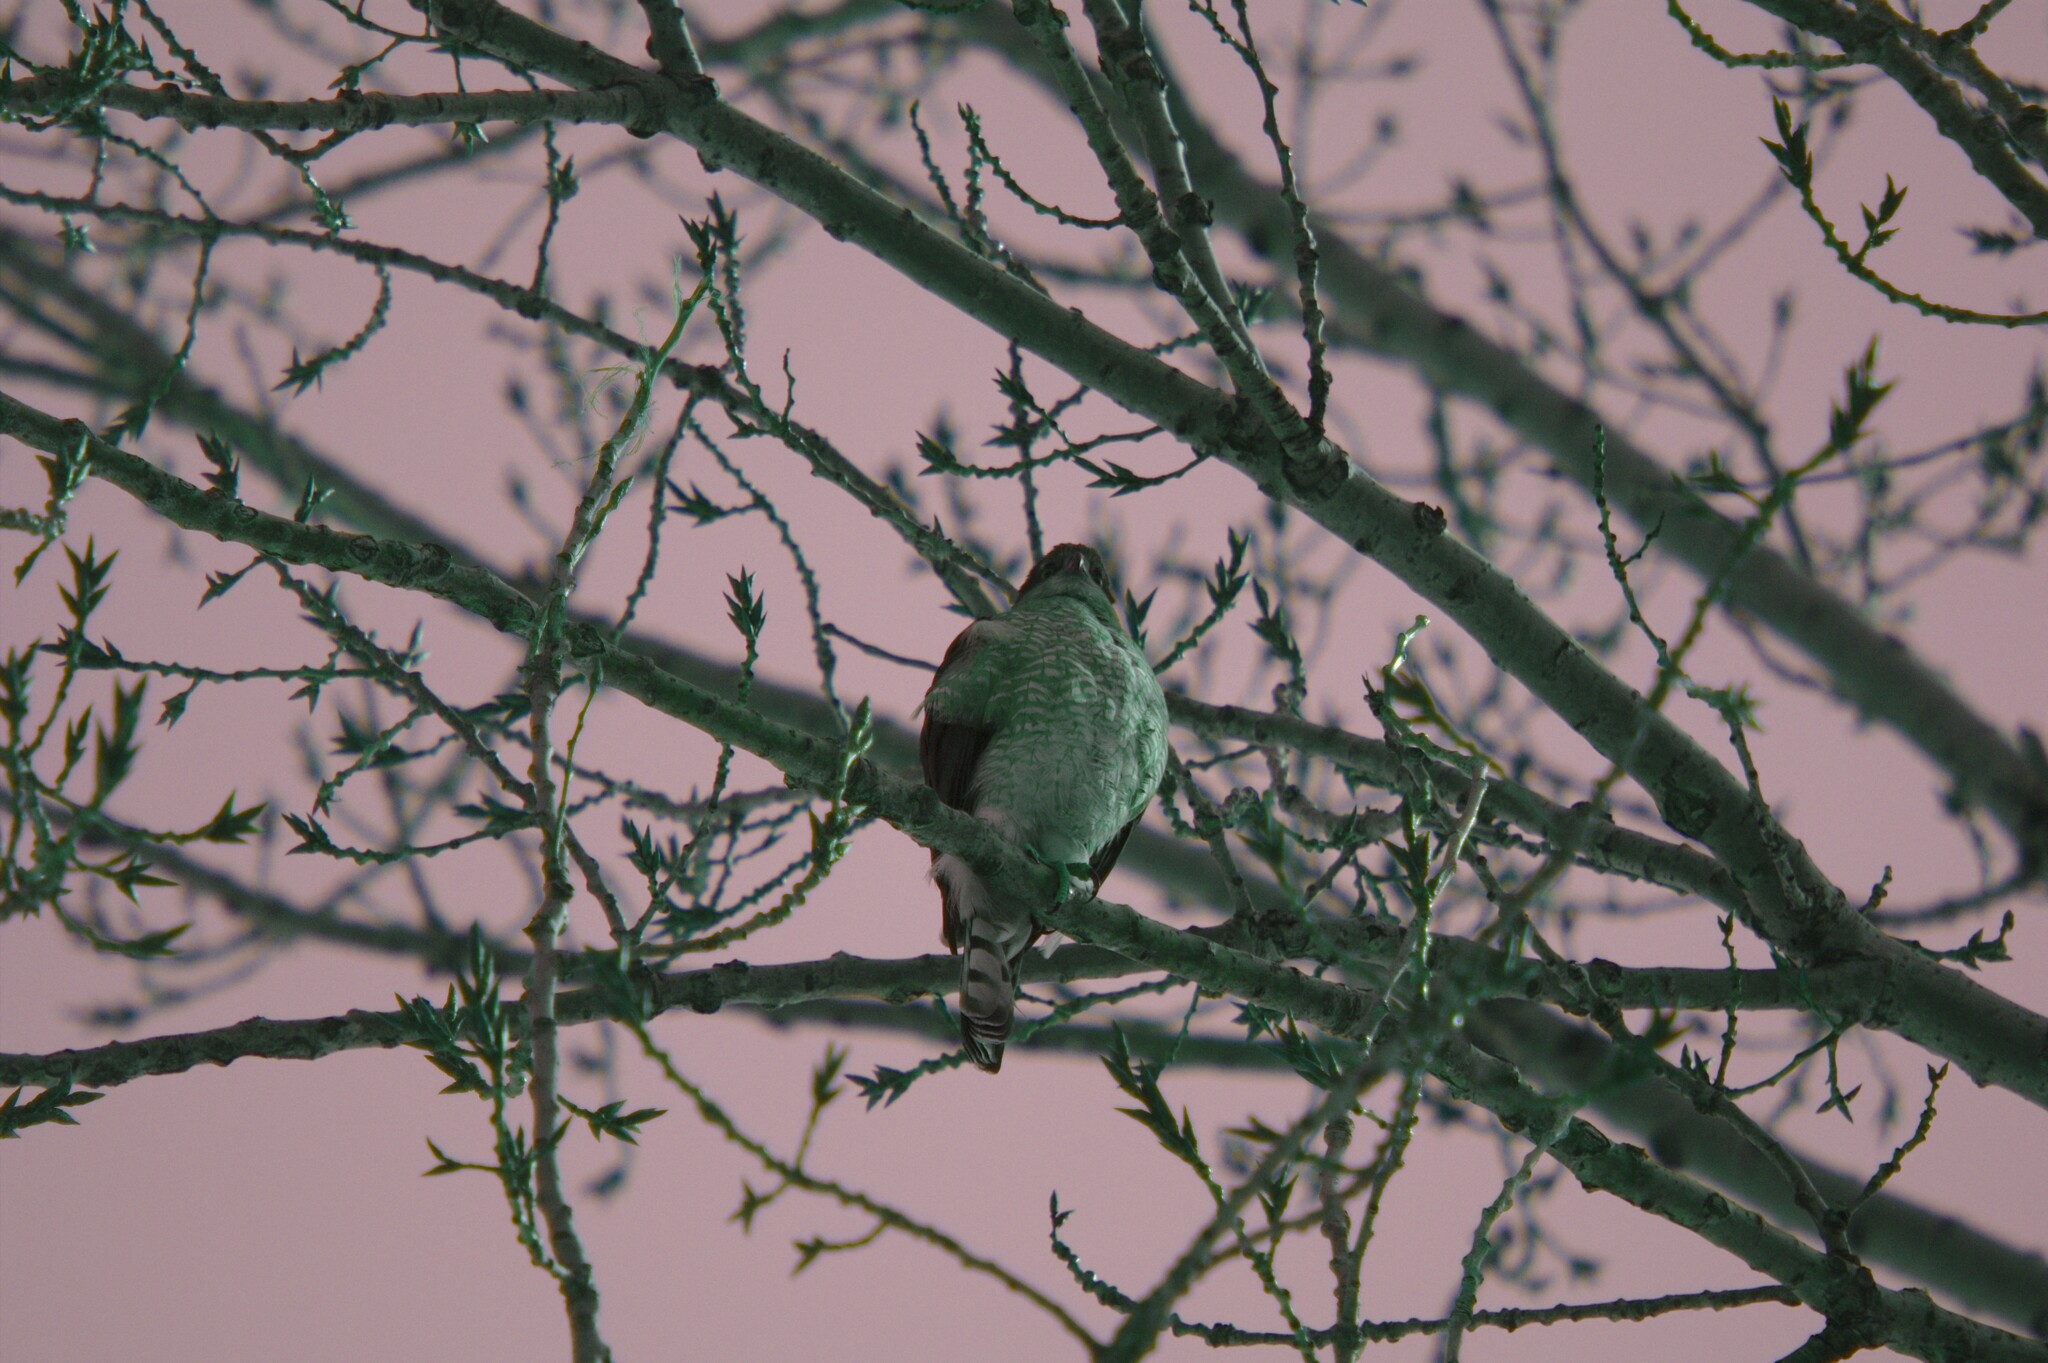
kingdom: Plantae
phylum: Tracheophyta
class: Magnoliopsida
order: Malpighiales
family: Salicaceae
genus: Populus
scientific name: Populus deltoides
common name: Eastern cottonwood
